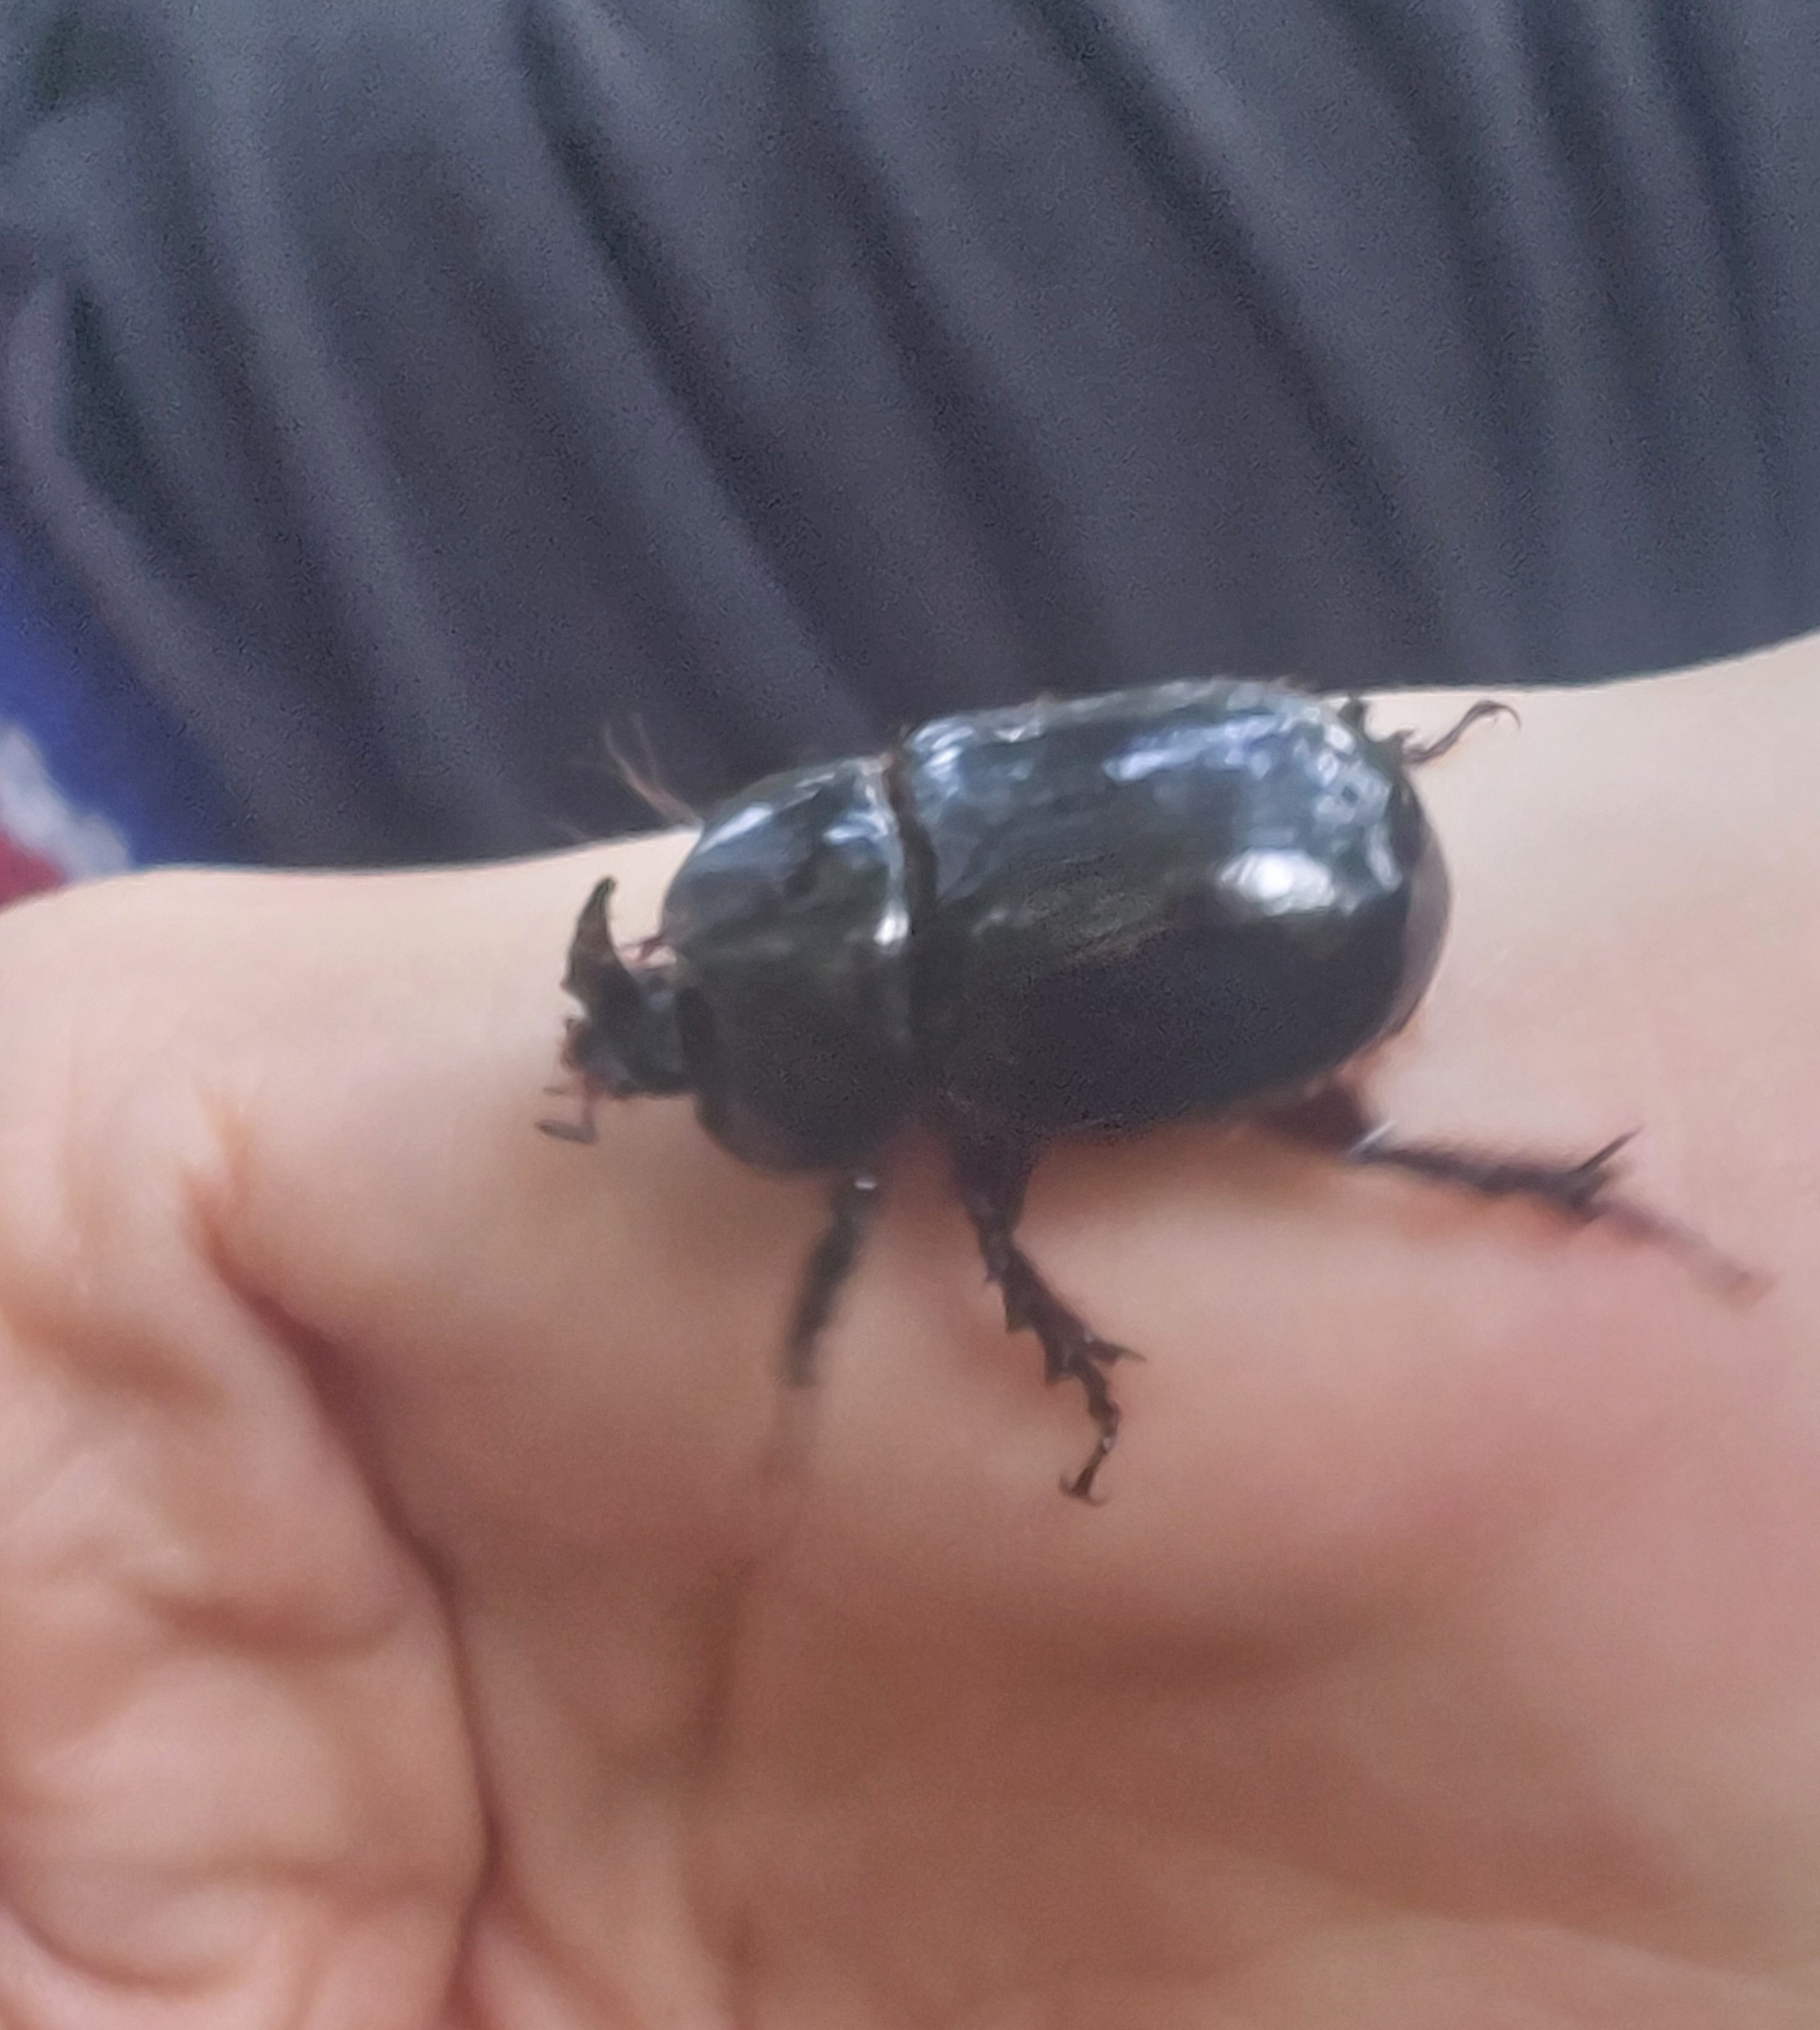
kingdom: Animalia
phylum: Arthropoda
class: Insecta
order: Coleoptera
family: Scarabaeidae
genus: Xyloryctes
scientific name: Xyloryctes thestalus
